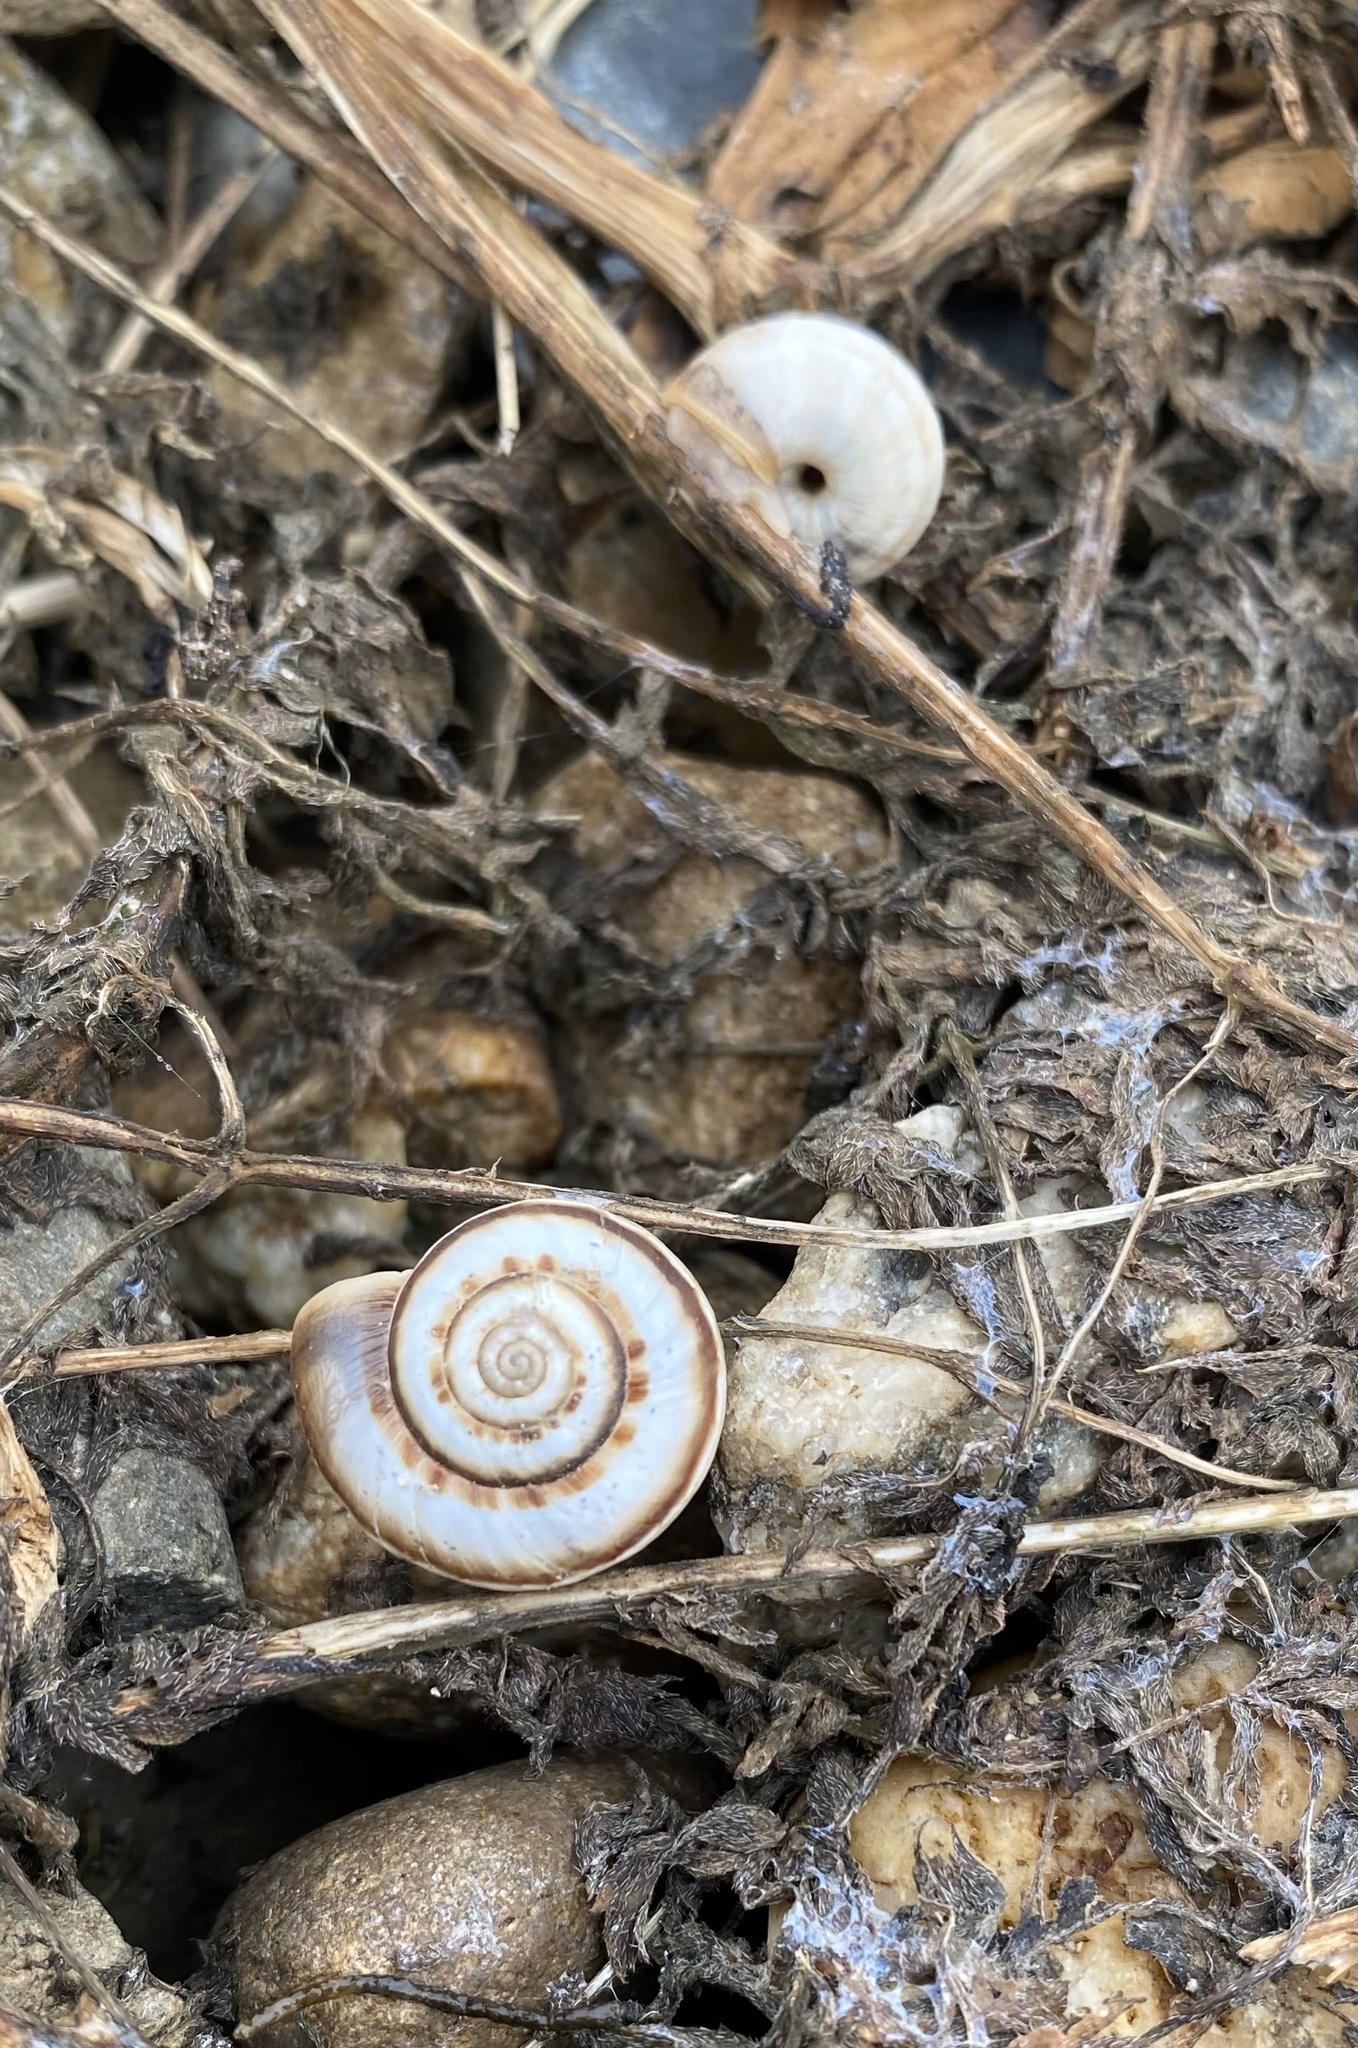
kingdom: Animalia
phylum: Mollusca
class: Gastropoda
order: Stylommatophora
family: Geomitridae
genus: Xeropicta
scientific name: Xeropicta derbentina
